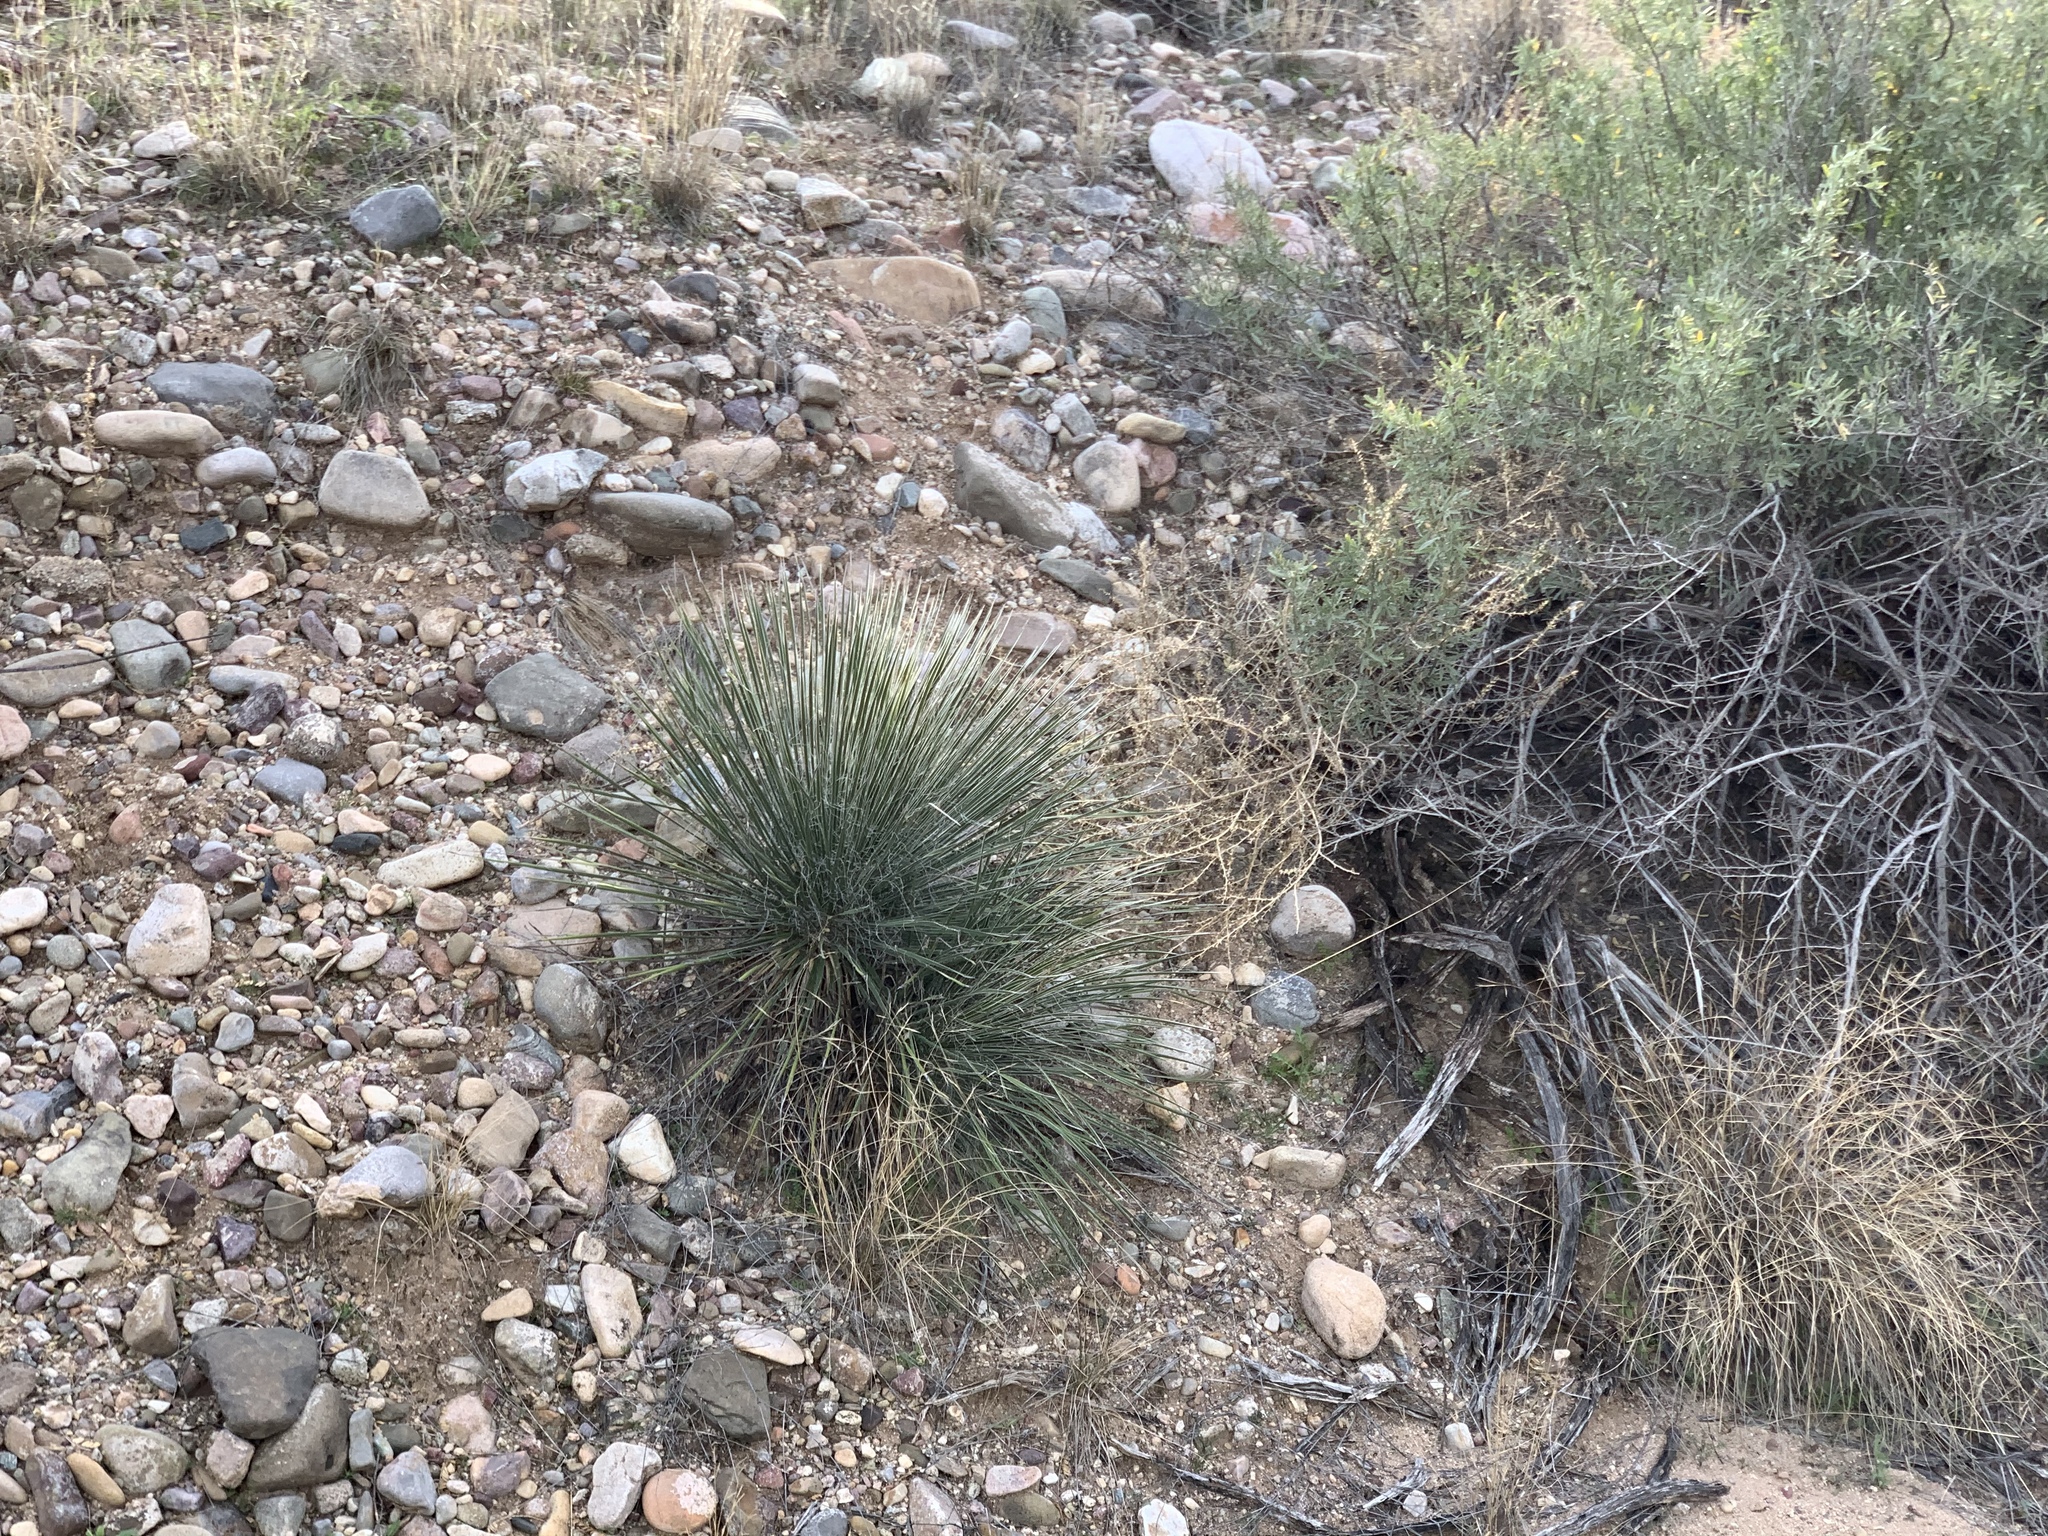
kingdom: Plantae
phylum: Tracheophyta
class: Liliopsida
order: Asparagales
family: Asparagaceae
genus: Yucca
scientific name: Yucca elata
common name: Palmella
